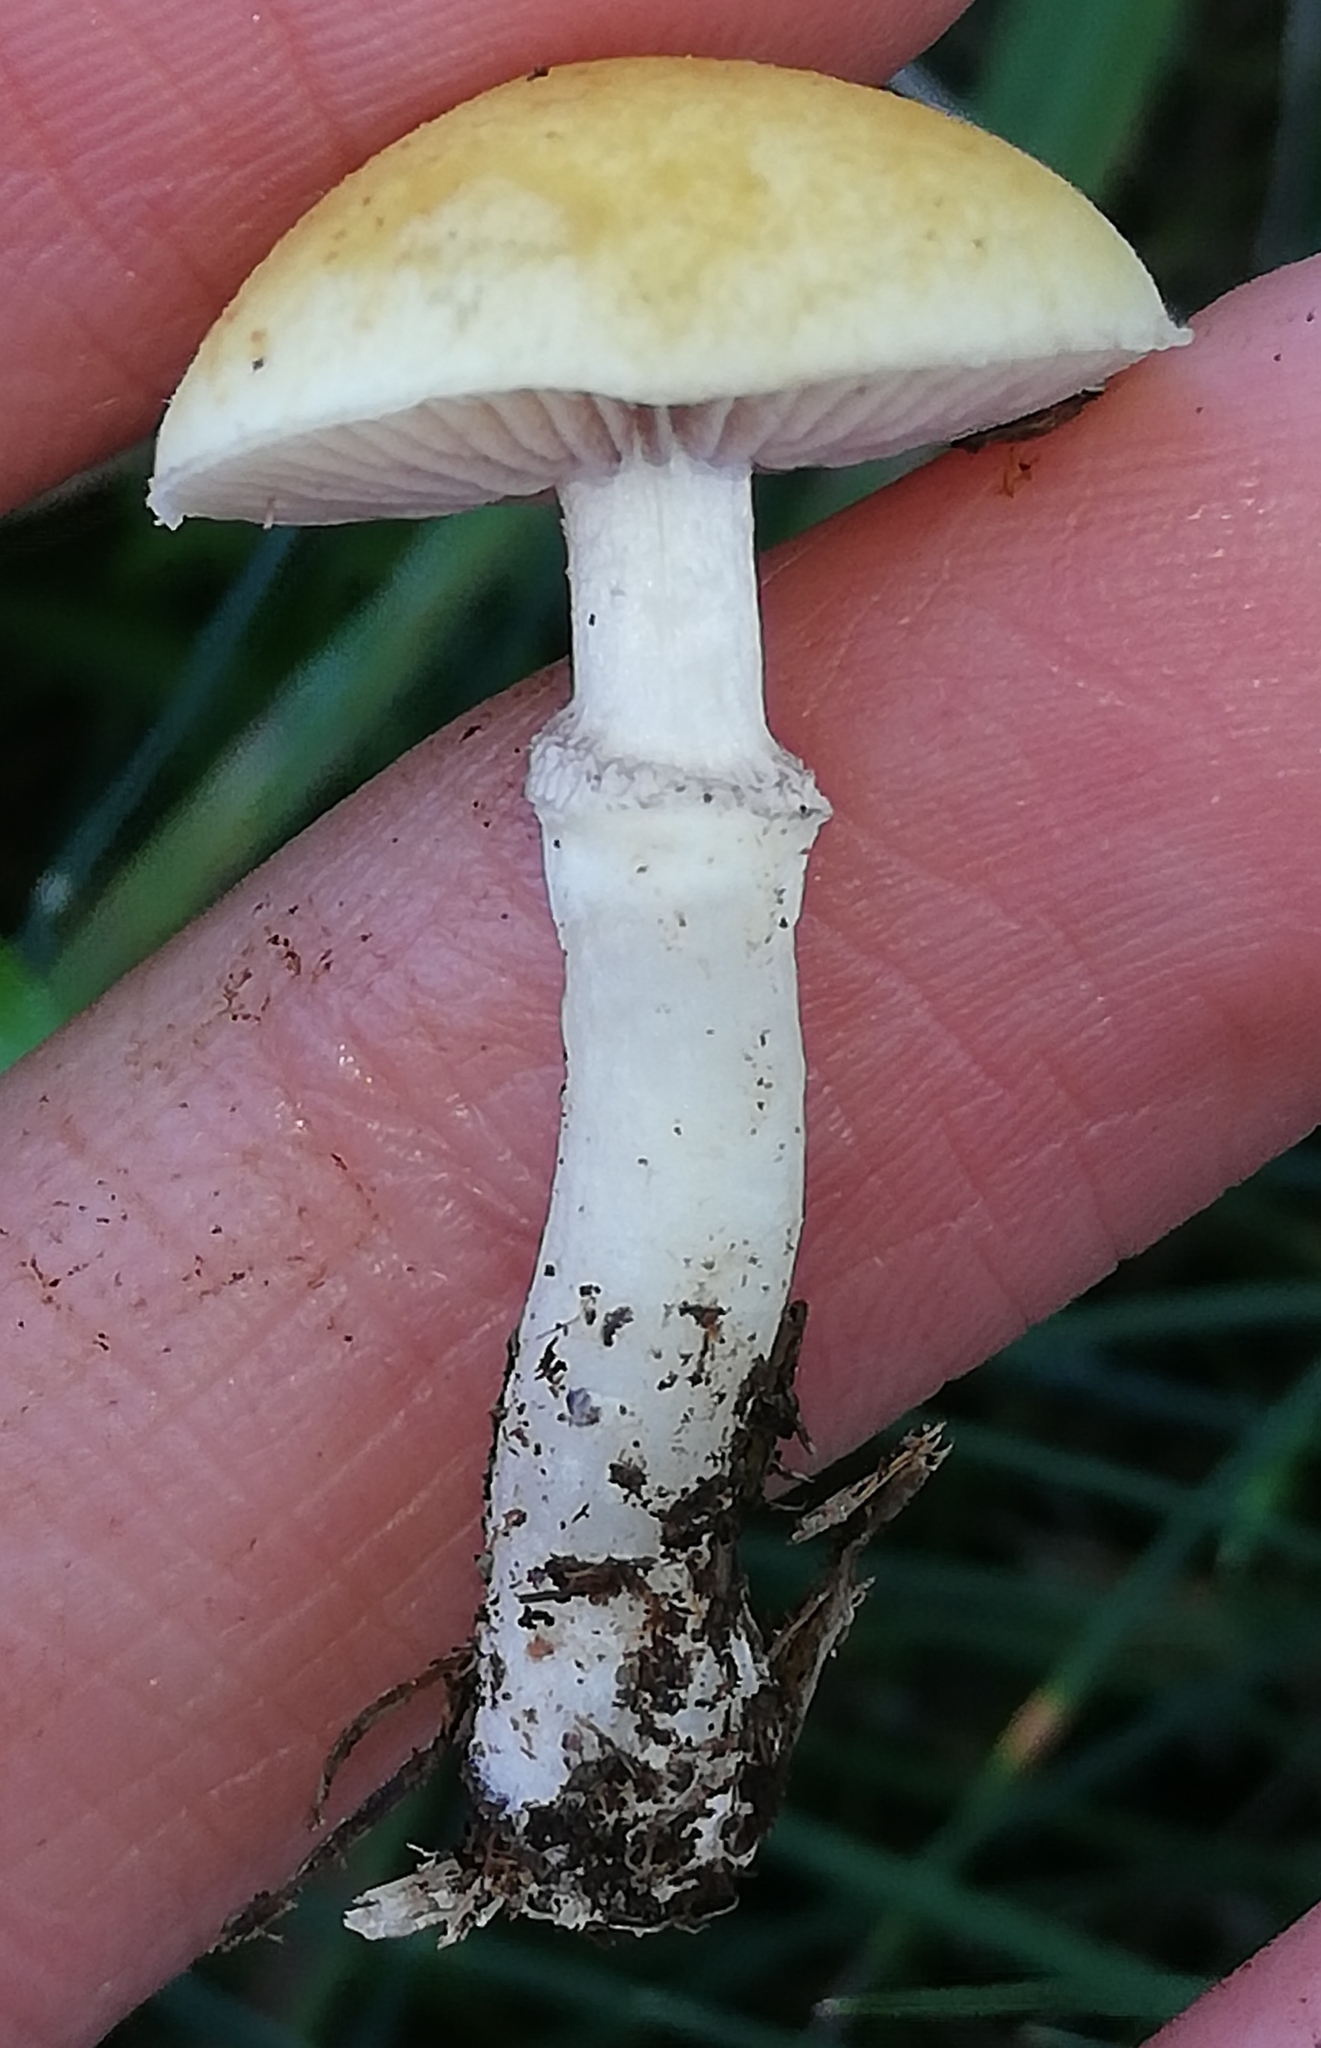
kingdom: Fungi
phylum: Basidiomycota
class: Agaricomycetes
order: Agaricales
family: Hymenogastraceae
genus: Psilocybe
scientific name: Psilocybe coronilla
